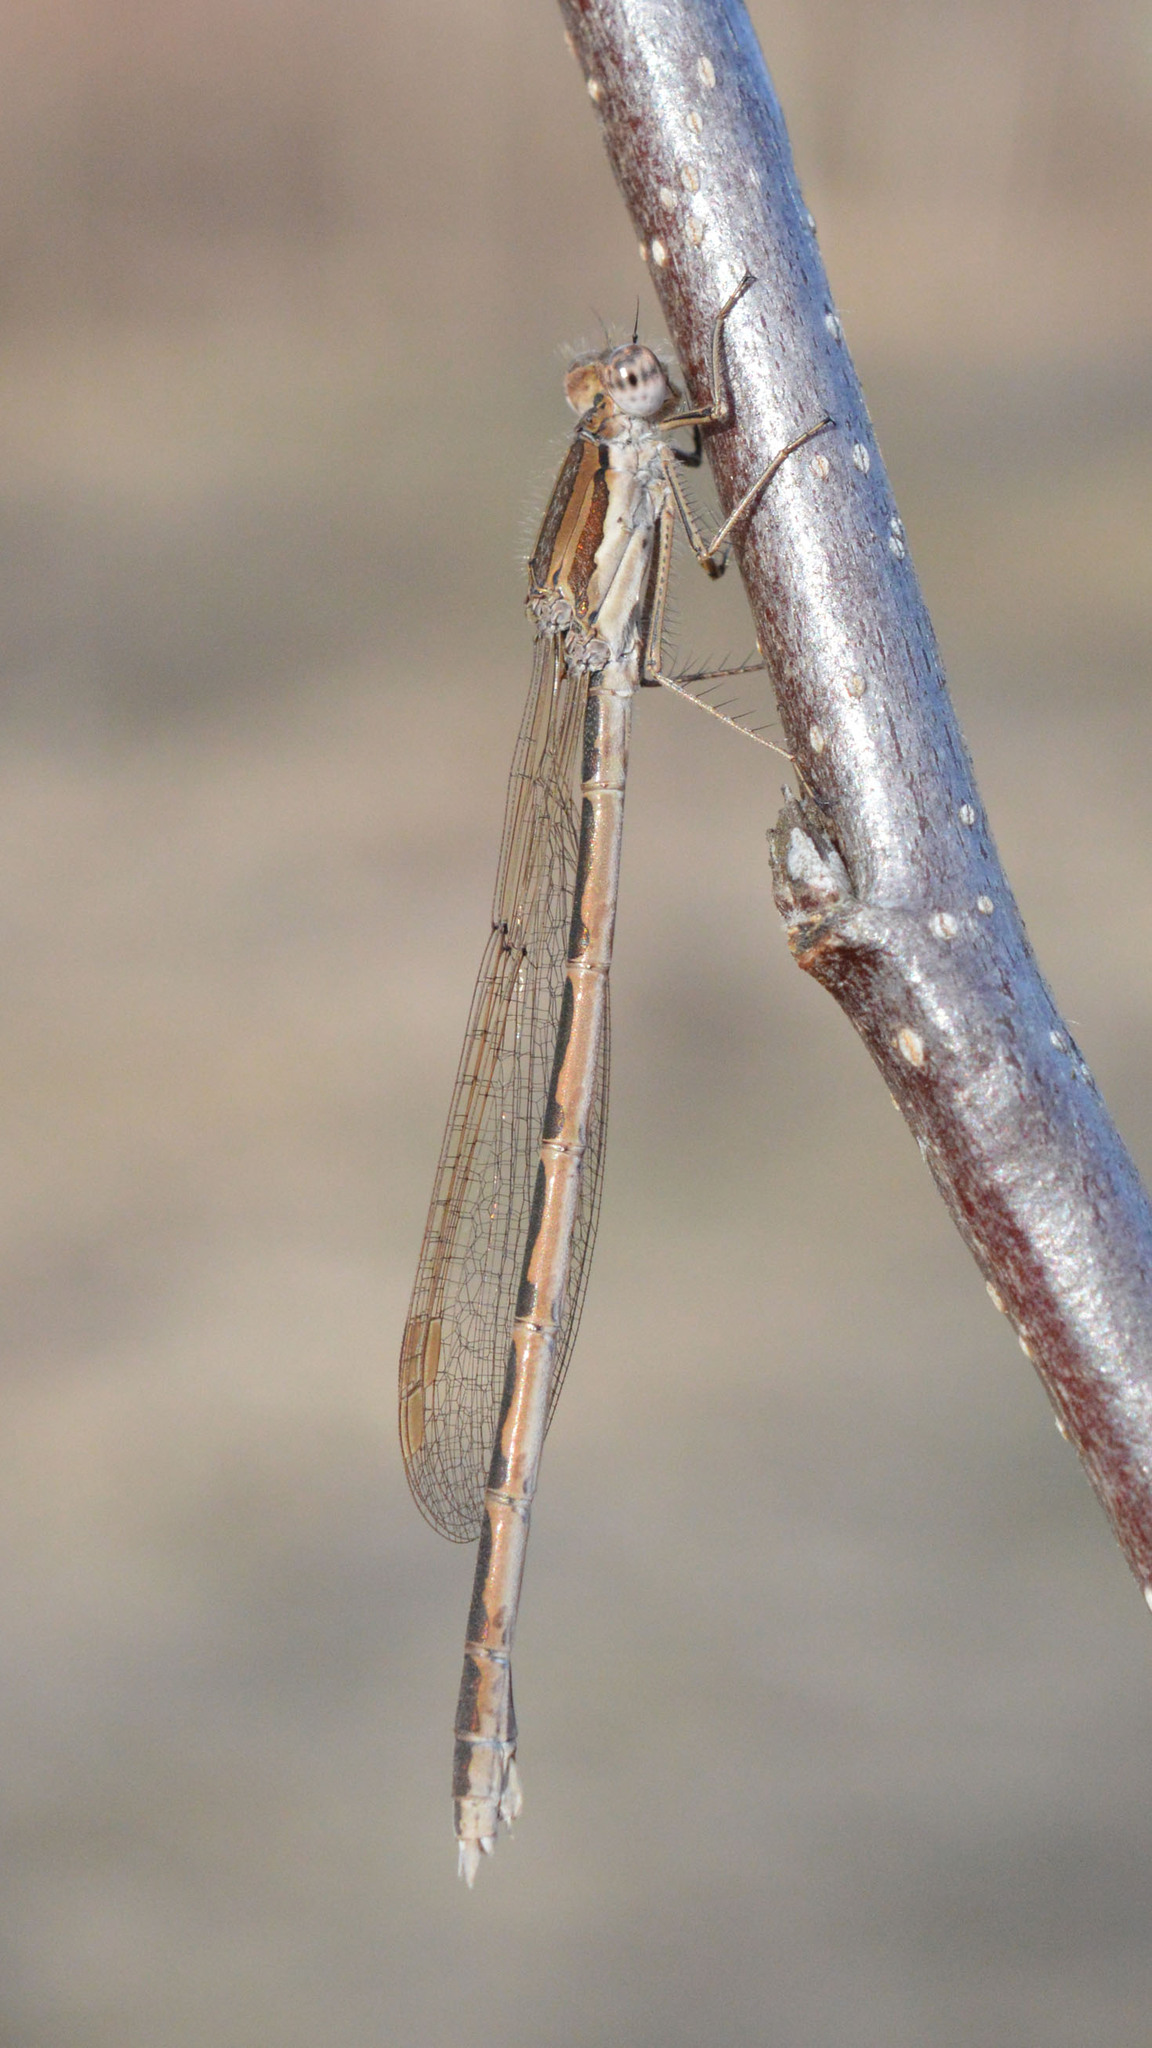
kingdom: Animalia
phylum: Arthropoda
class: Insecta
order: Odonata
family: Lestidae
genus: Sympecma
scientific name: Sympecma fusca
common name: Common winter damsel
